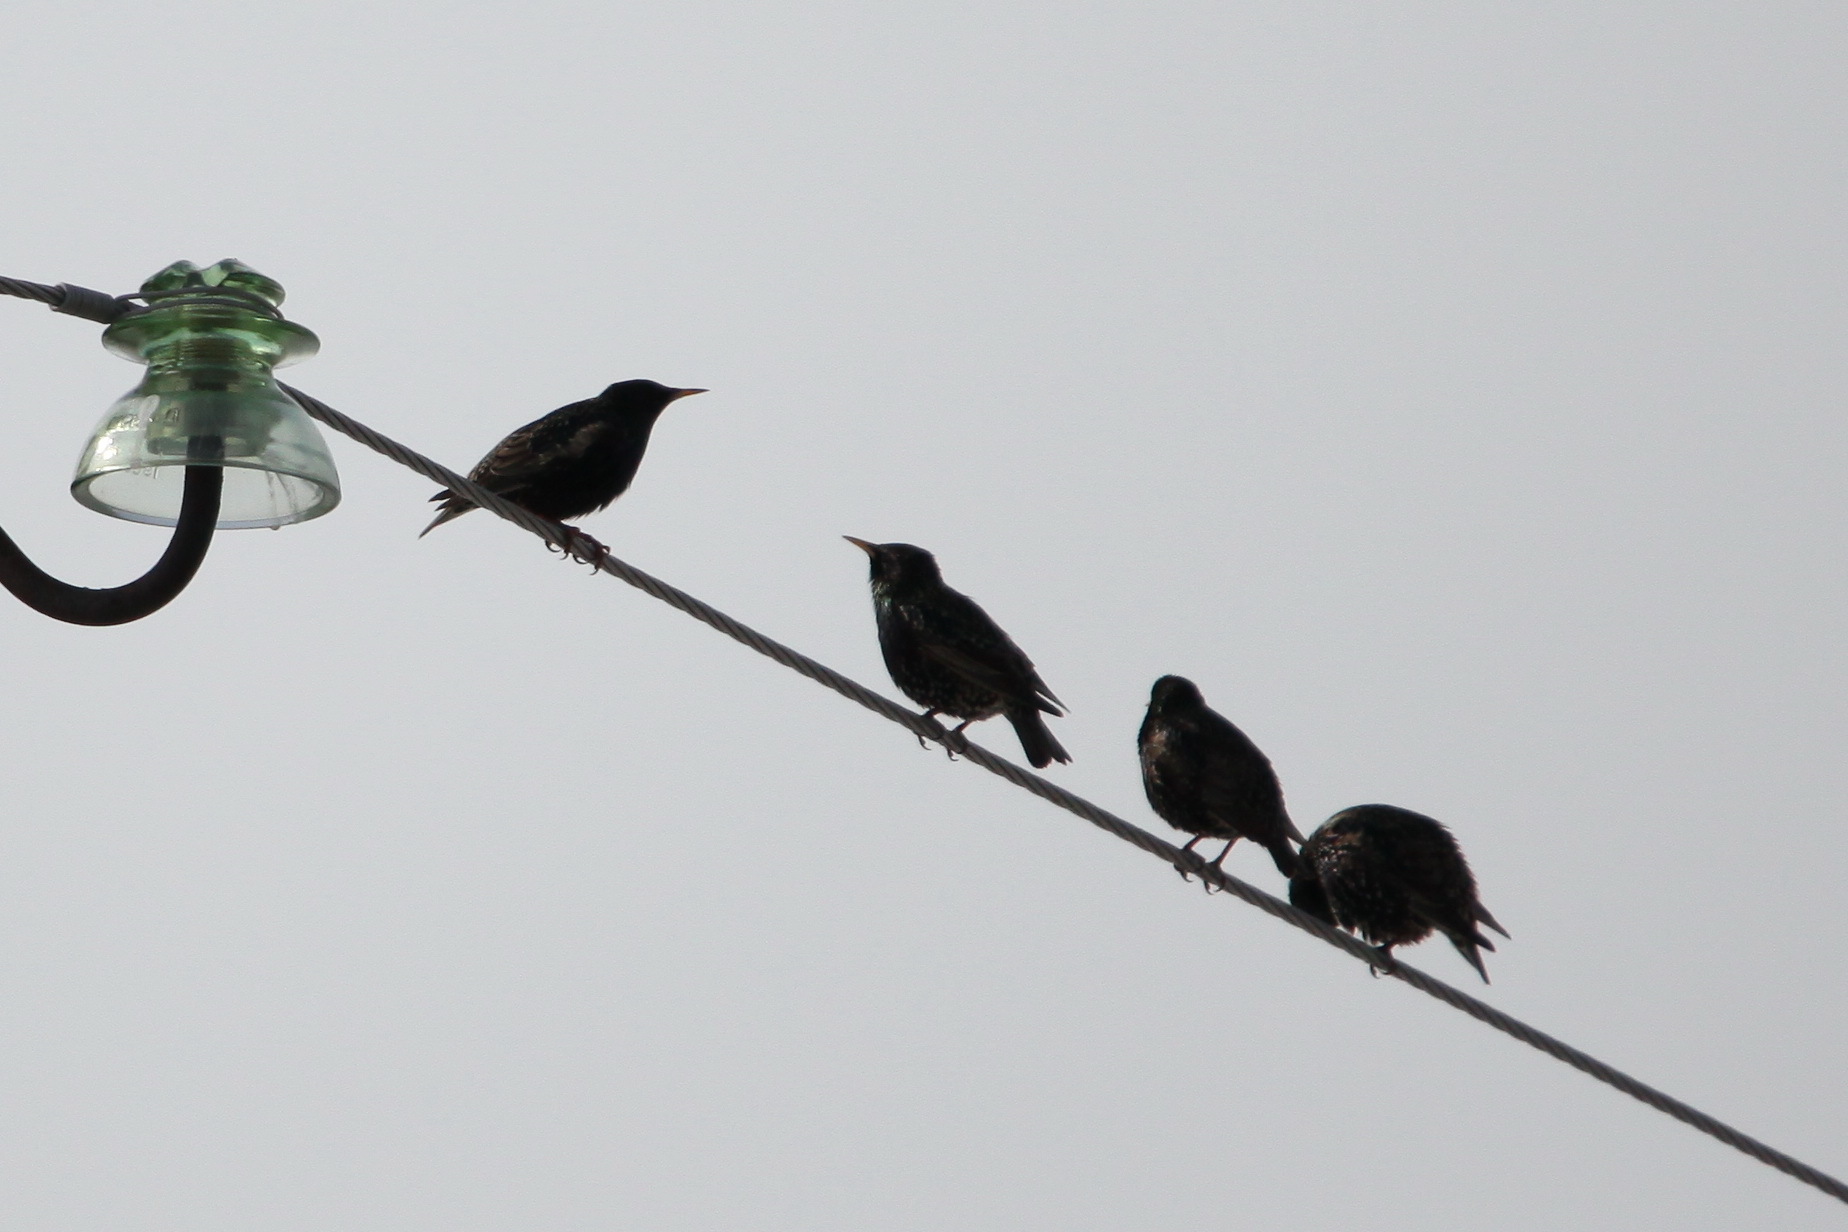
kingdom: Animalia
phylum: Chordata
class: Aves
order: Passeriformes
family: Sturnidae
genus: Sturnus
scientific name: Sturnus vulgaris
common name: Common starling
